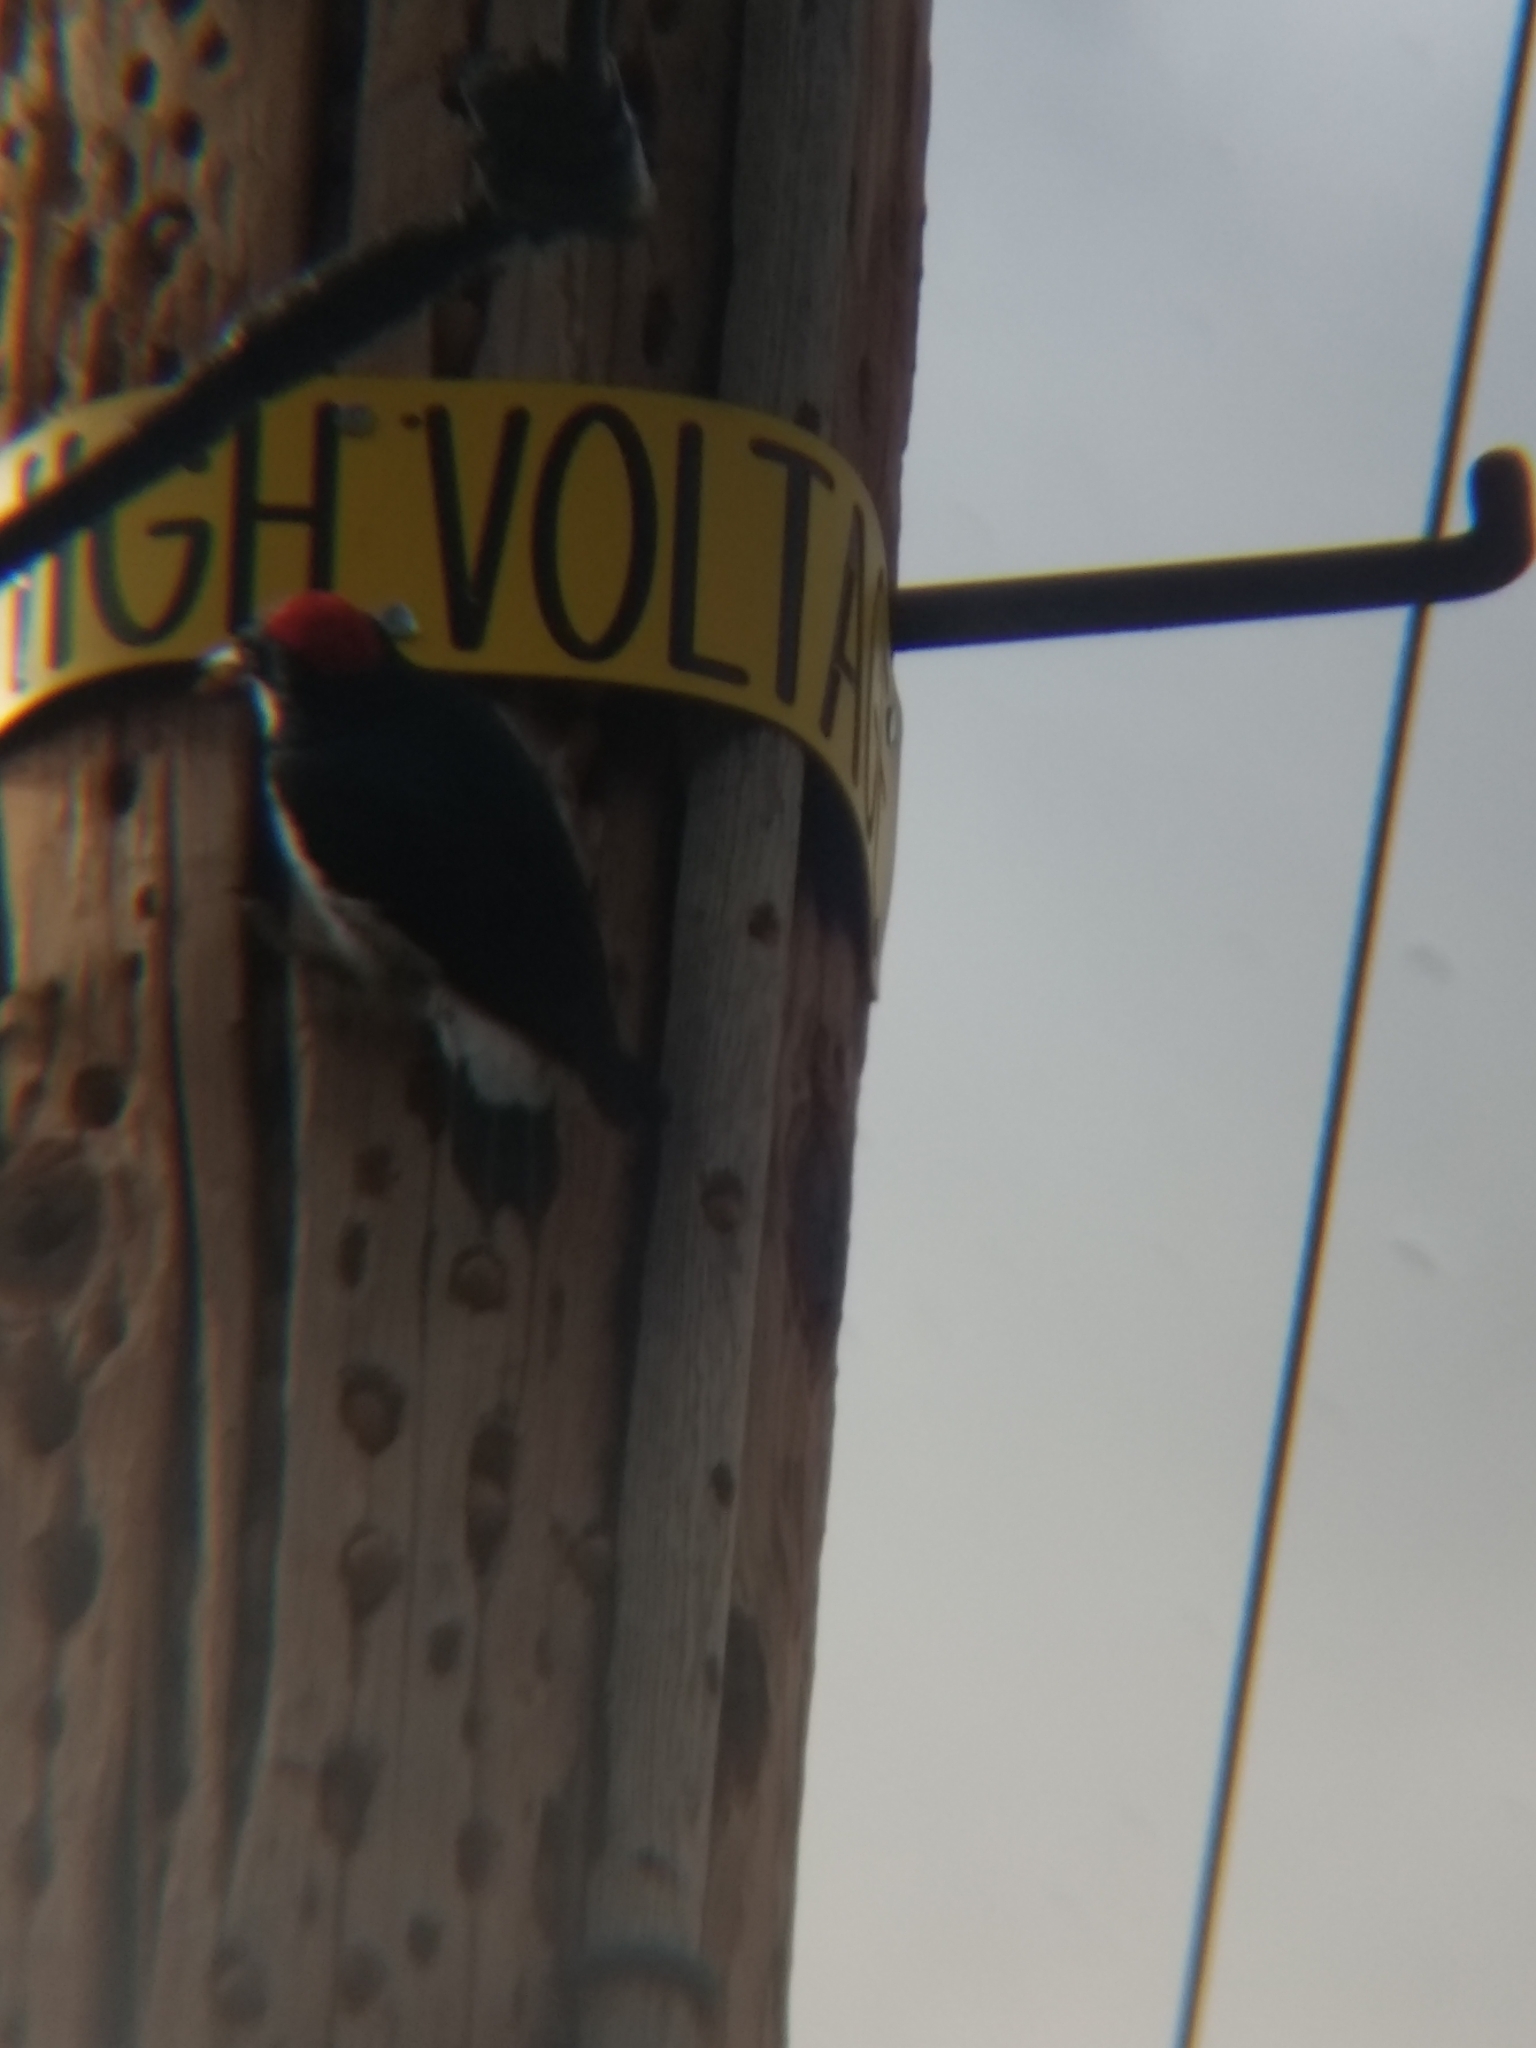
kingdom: Animalia
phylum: Chordata
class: Aves
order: Piciformes
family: Picidae
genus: Melanerpes
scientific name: Melanerpes formicivorus
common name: Acorn woodpecker
